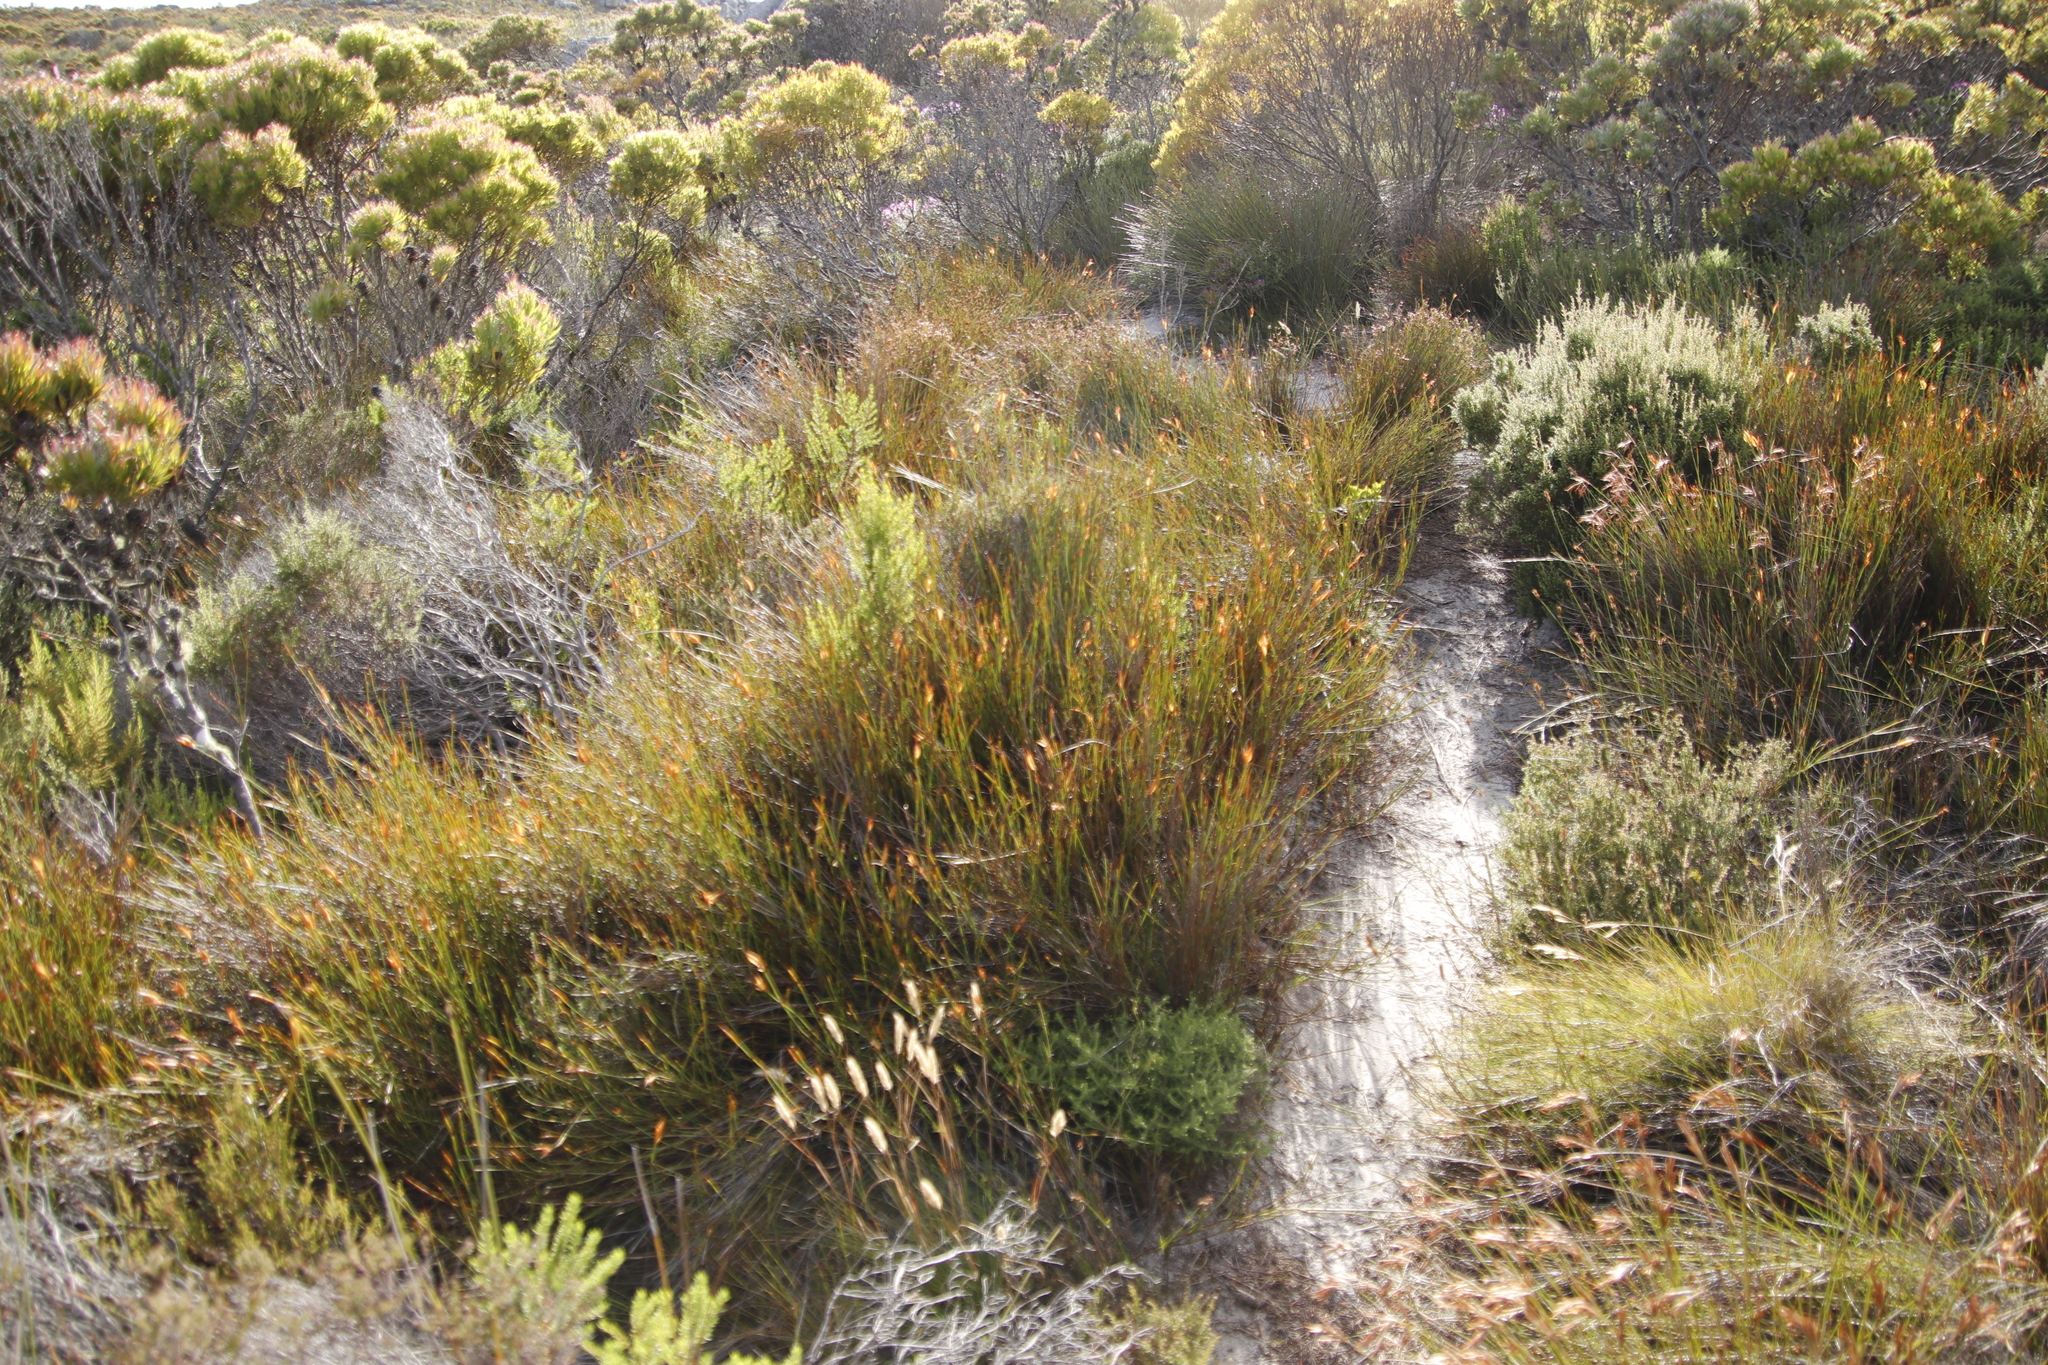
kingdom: Plantae
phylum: Tracheophyta
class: Liliopsida
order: Poales
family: Restionaceae
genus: Willdenowia
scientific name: Willdenowia teres
